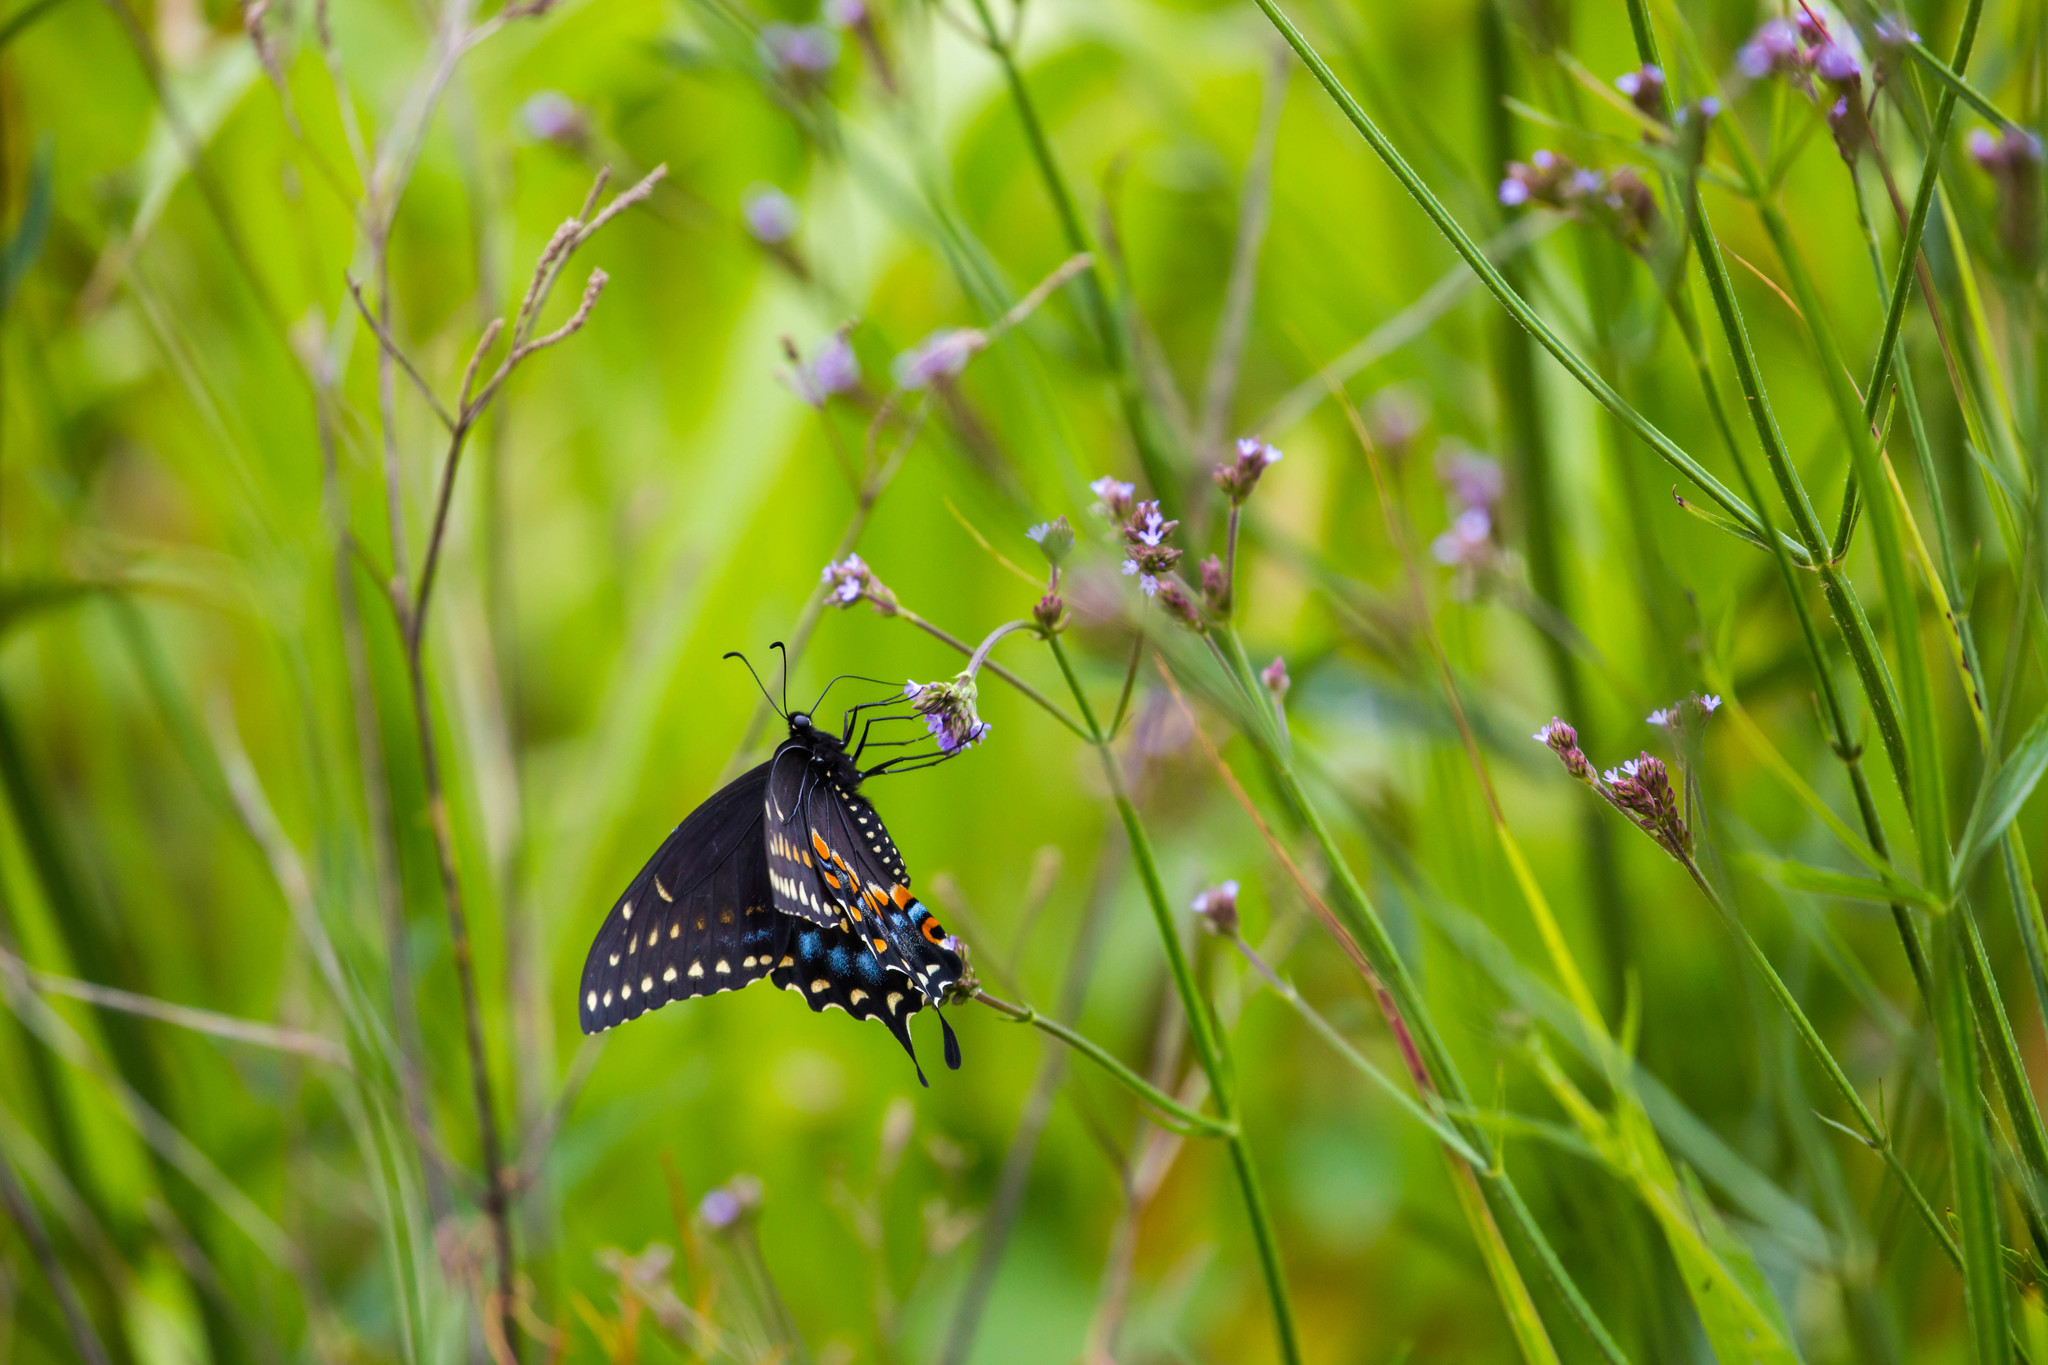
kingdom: Animalia
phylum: Arthropoda
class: Insecta
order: Lepidoptera
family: Papilionidae
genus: Papilio
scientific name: Papilio polyxenes
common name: Black swallowtail
